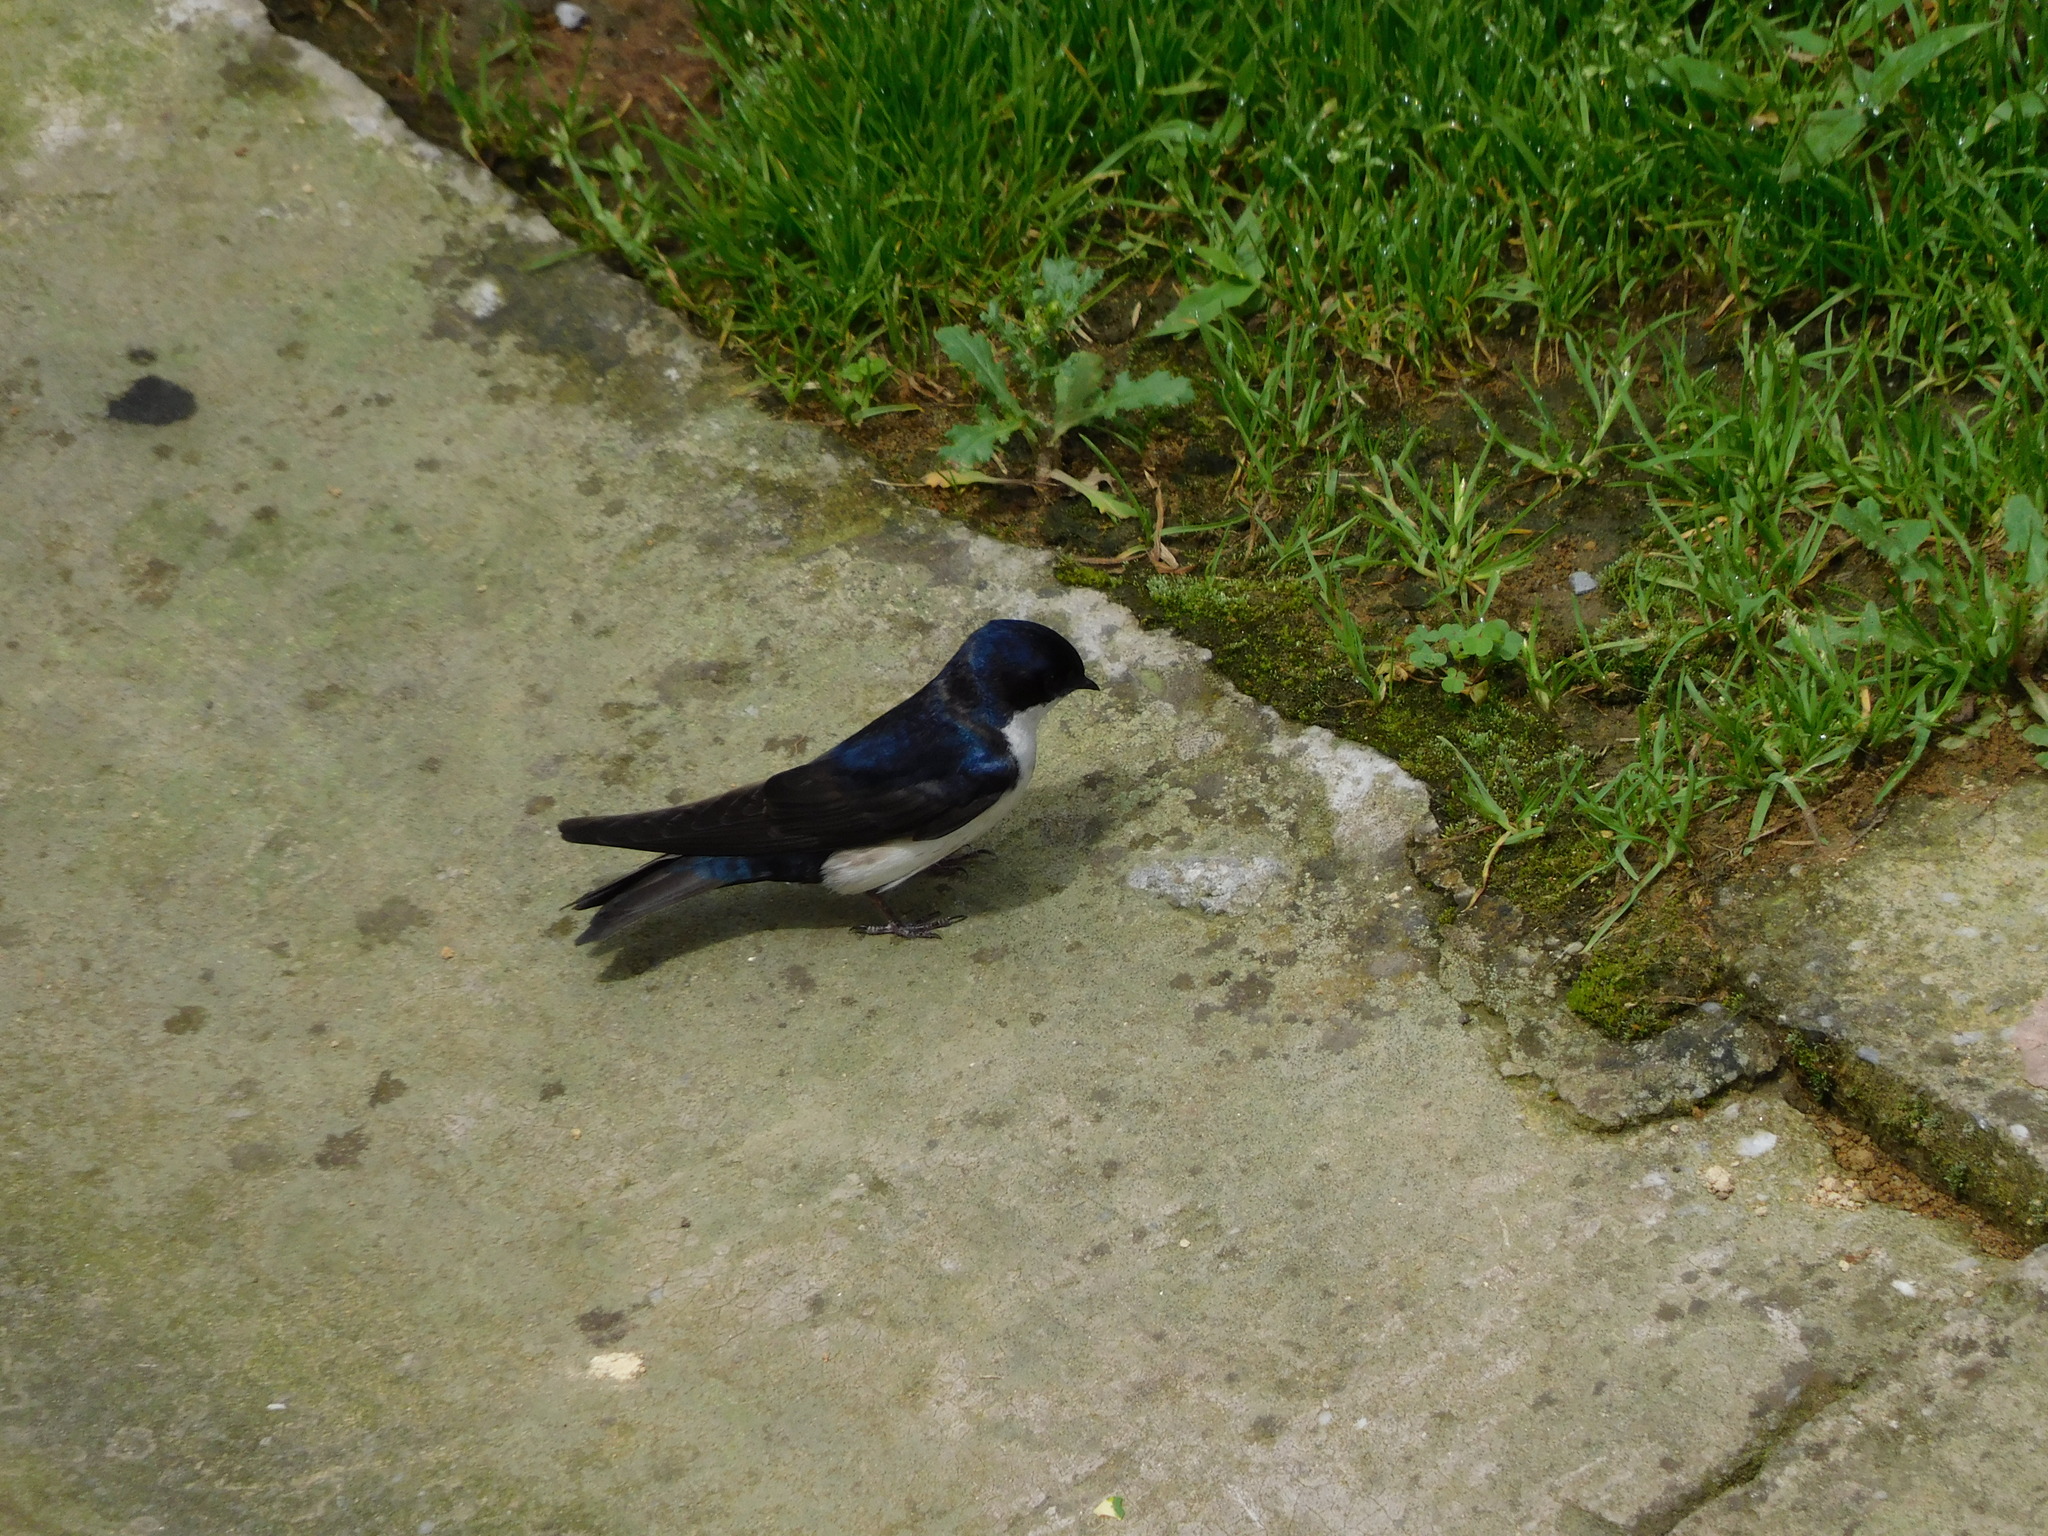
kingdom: Animalia
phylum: Chordata
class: Aves
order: Passeriformes
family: Hirundinidae
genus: Notiochelidon
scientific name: Notiochelidon cyanoleuca
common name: Blue-and-white swallow
